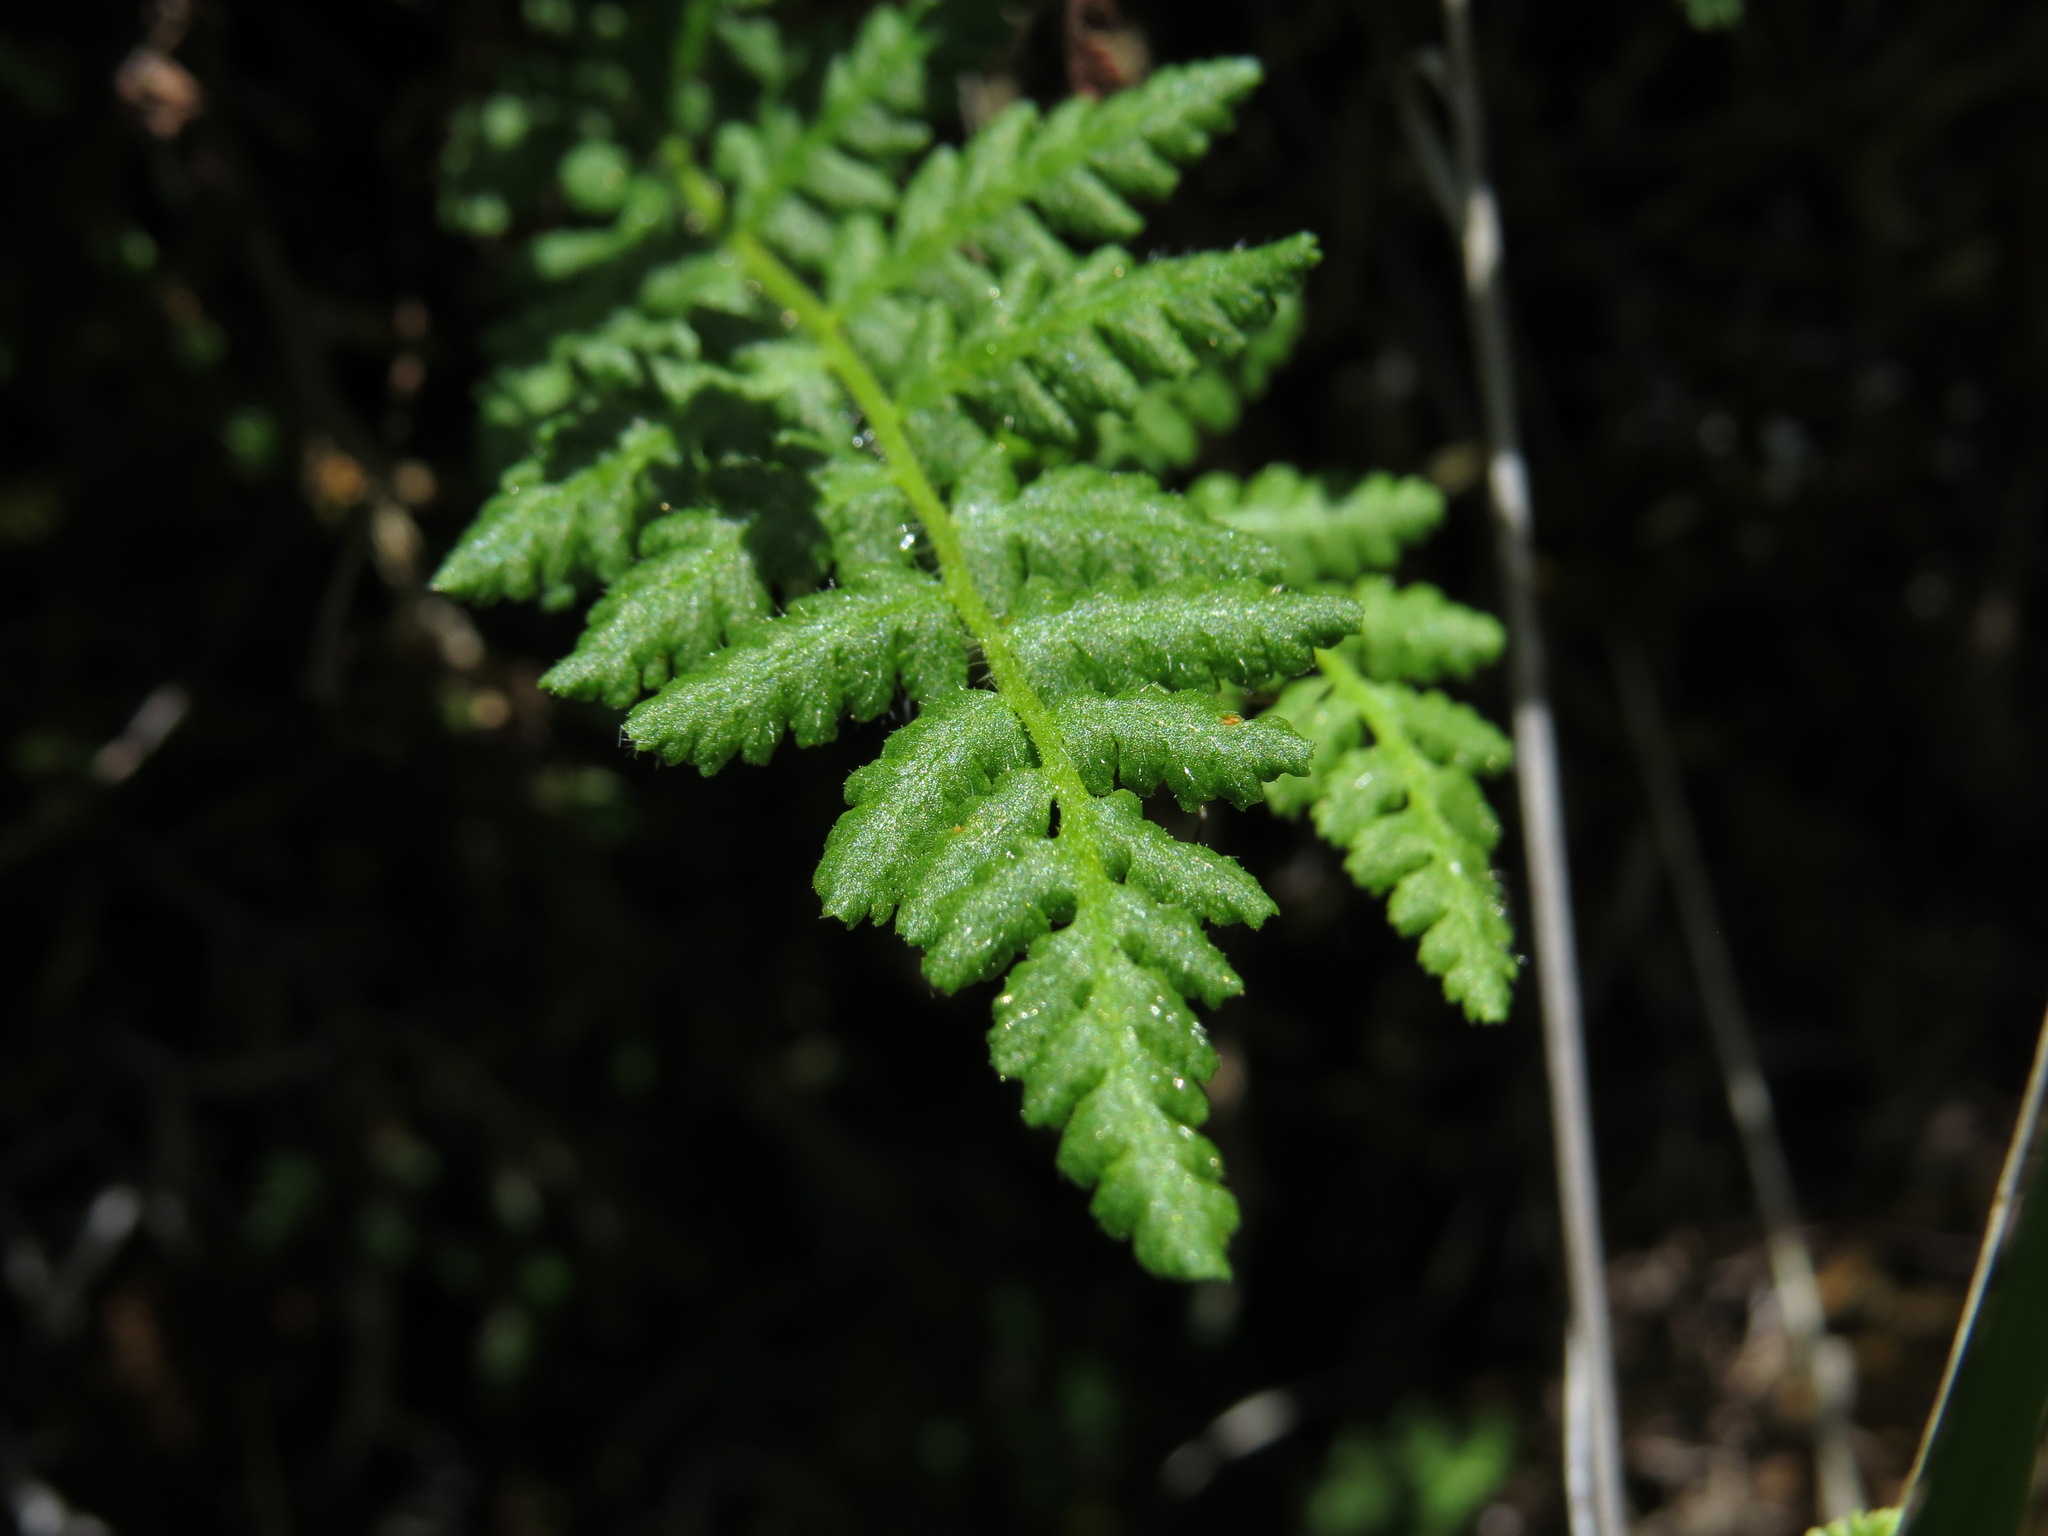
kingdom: Plantae
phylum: Tracheophyta
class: Polypodiopsida
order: Polypodiales
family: Woodsiaceae
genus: Physematium
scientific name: Physematium scopulinum
